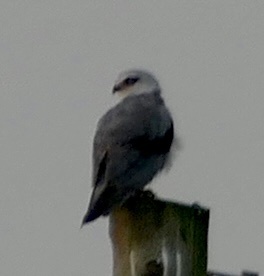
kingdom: Animalia
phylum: Chordata
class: Aves
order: Accipitriformes
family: Accipitridae
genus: Elanus
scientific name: Elanus caeruleus
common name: Black-winged kite
